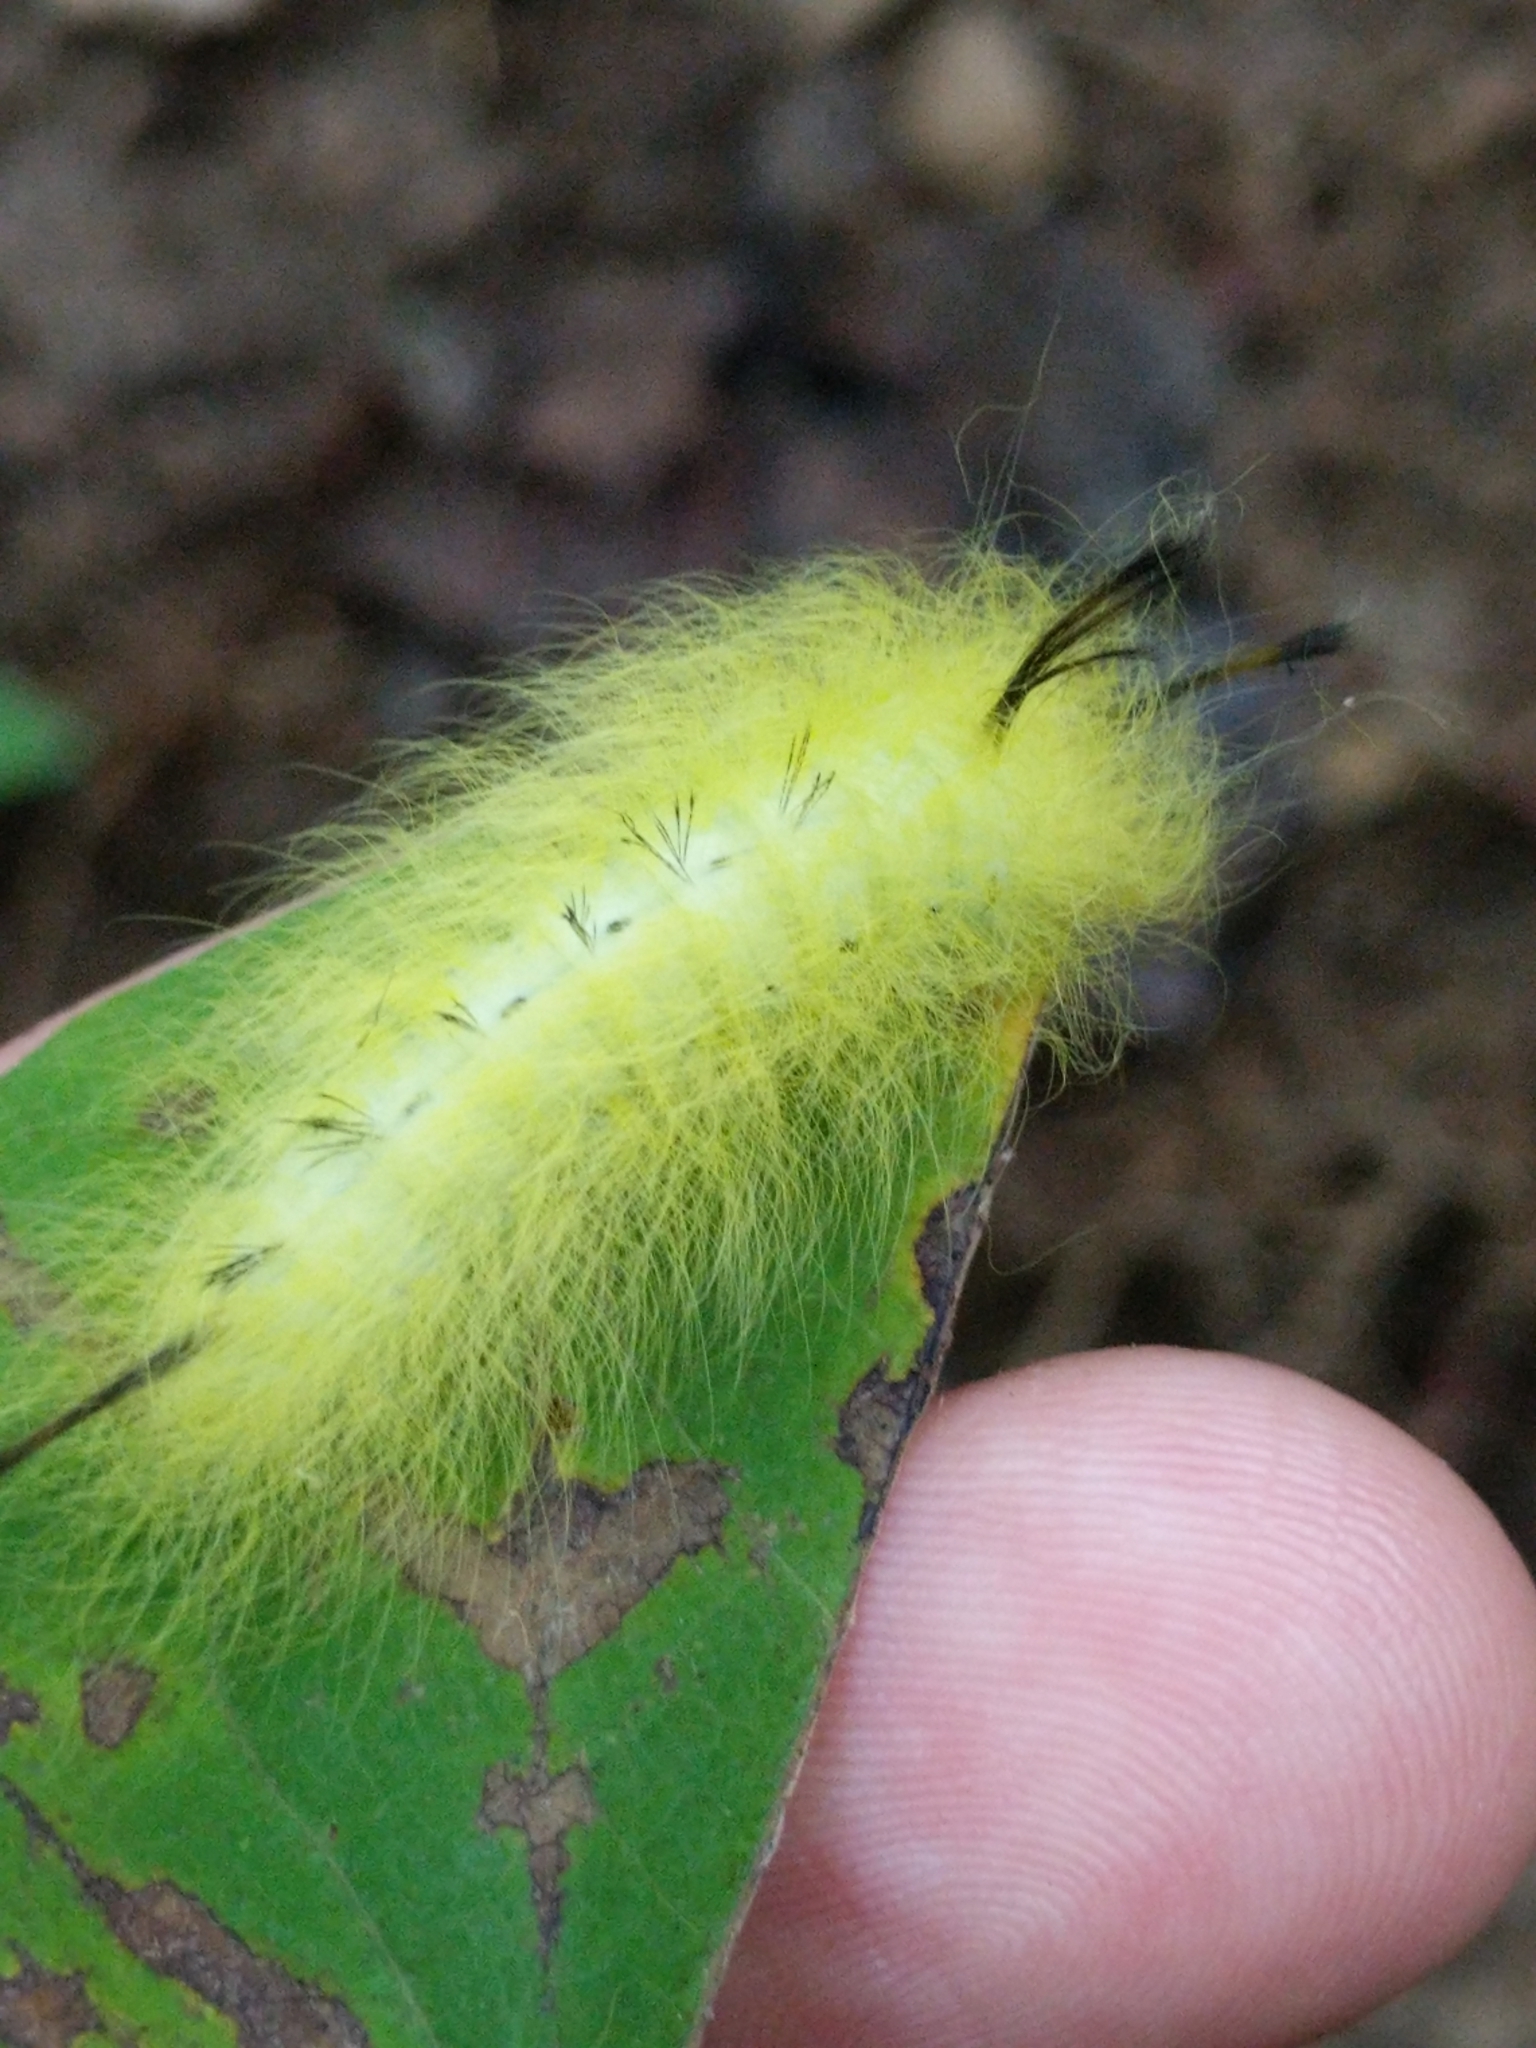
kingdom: Animalia
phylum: Arthropoda
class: Insecta
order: Lepidoptera
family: Apatelodidae
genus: Hygrochroa
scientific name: Hygrochroa Apatelodes torrefacta
